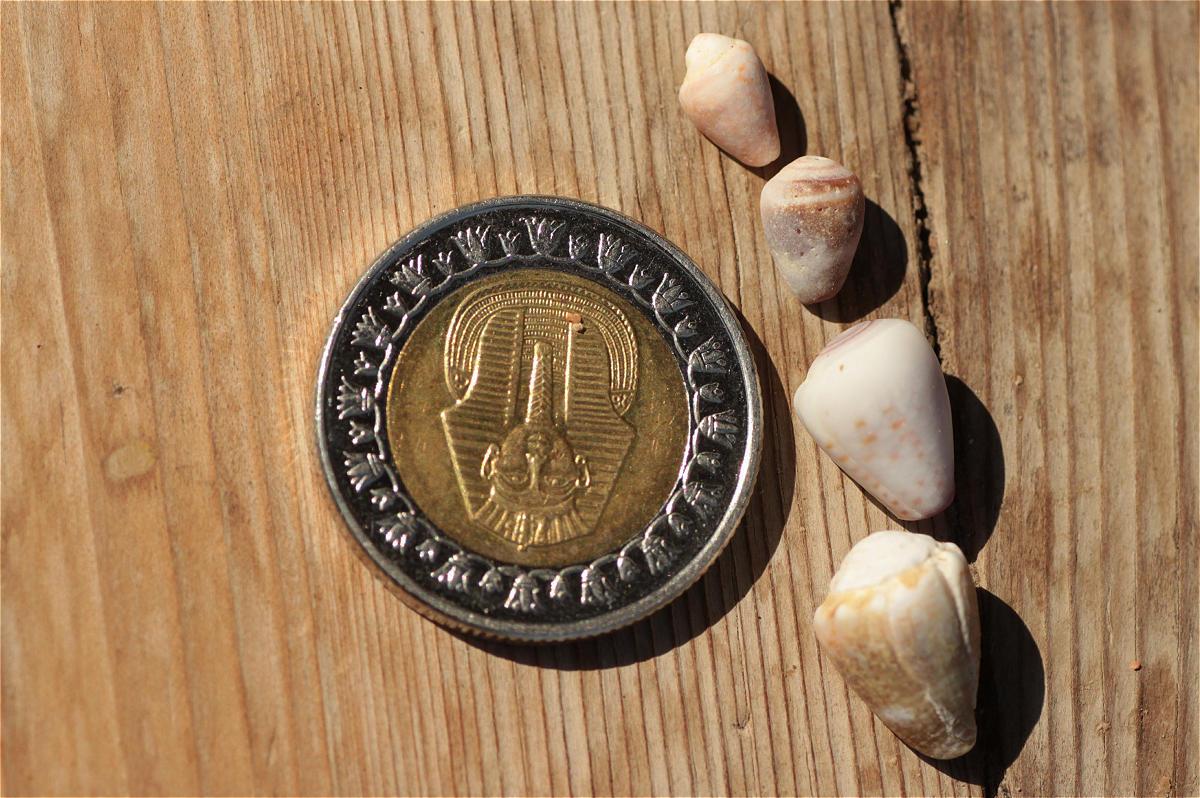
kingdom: Animalia
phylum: Mollusca
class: Gastropoda
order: Neogastropoda
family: Conidae
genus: Conus
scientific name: Conus miliaris
